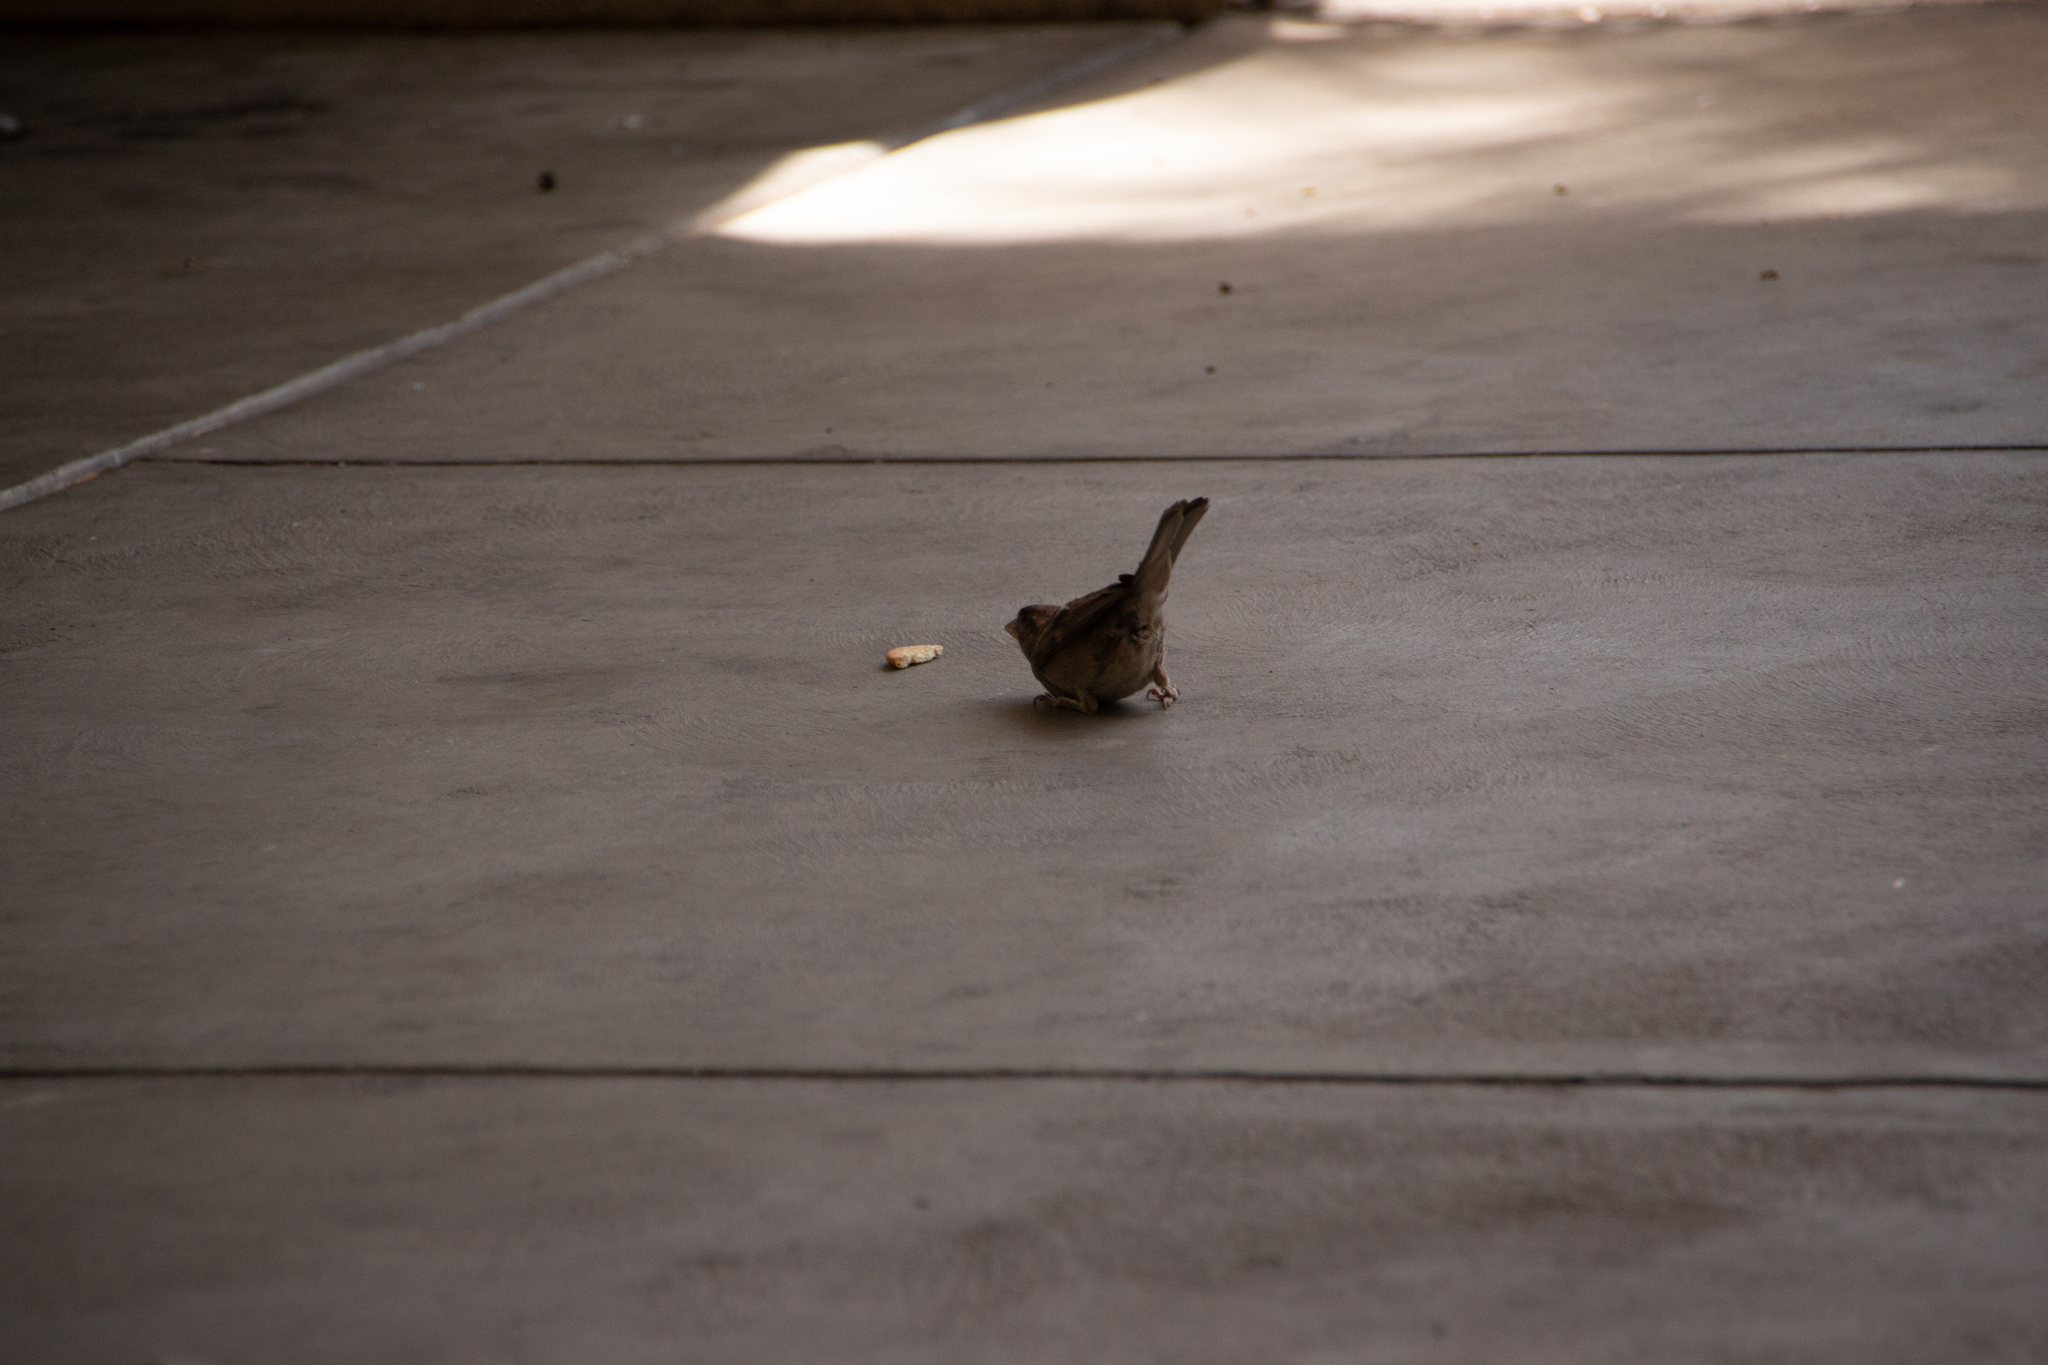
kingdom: Animalia
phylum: Chordata
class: Aves
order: Passeriformes
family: Passeridae
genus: Passer
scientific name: Passer domesticus
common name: House sparrow
